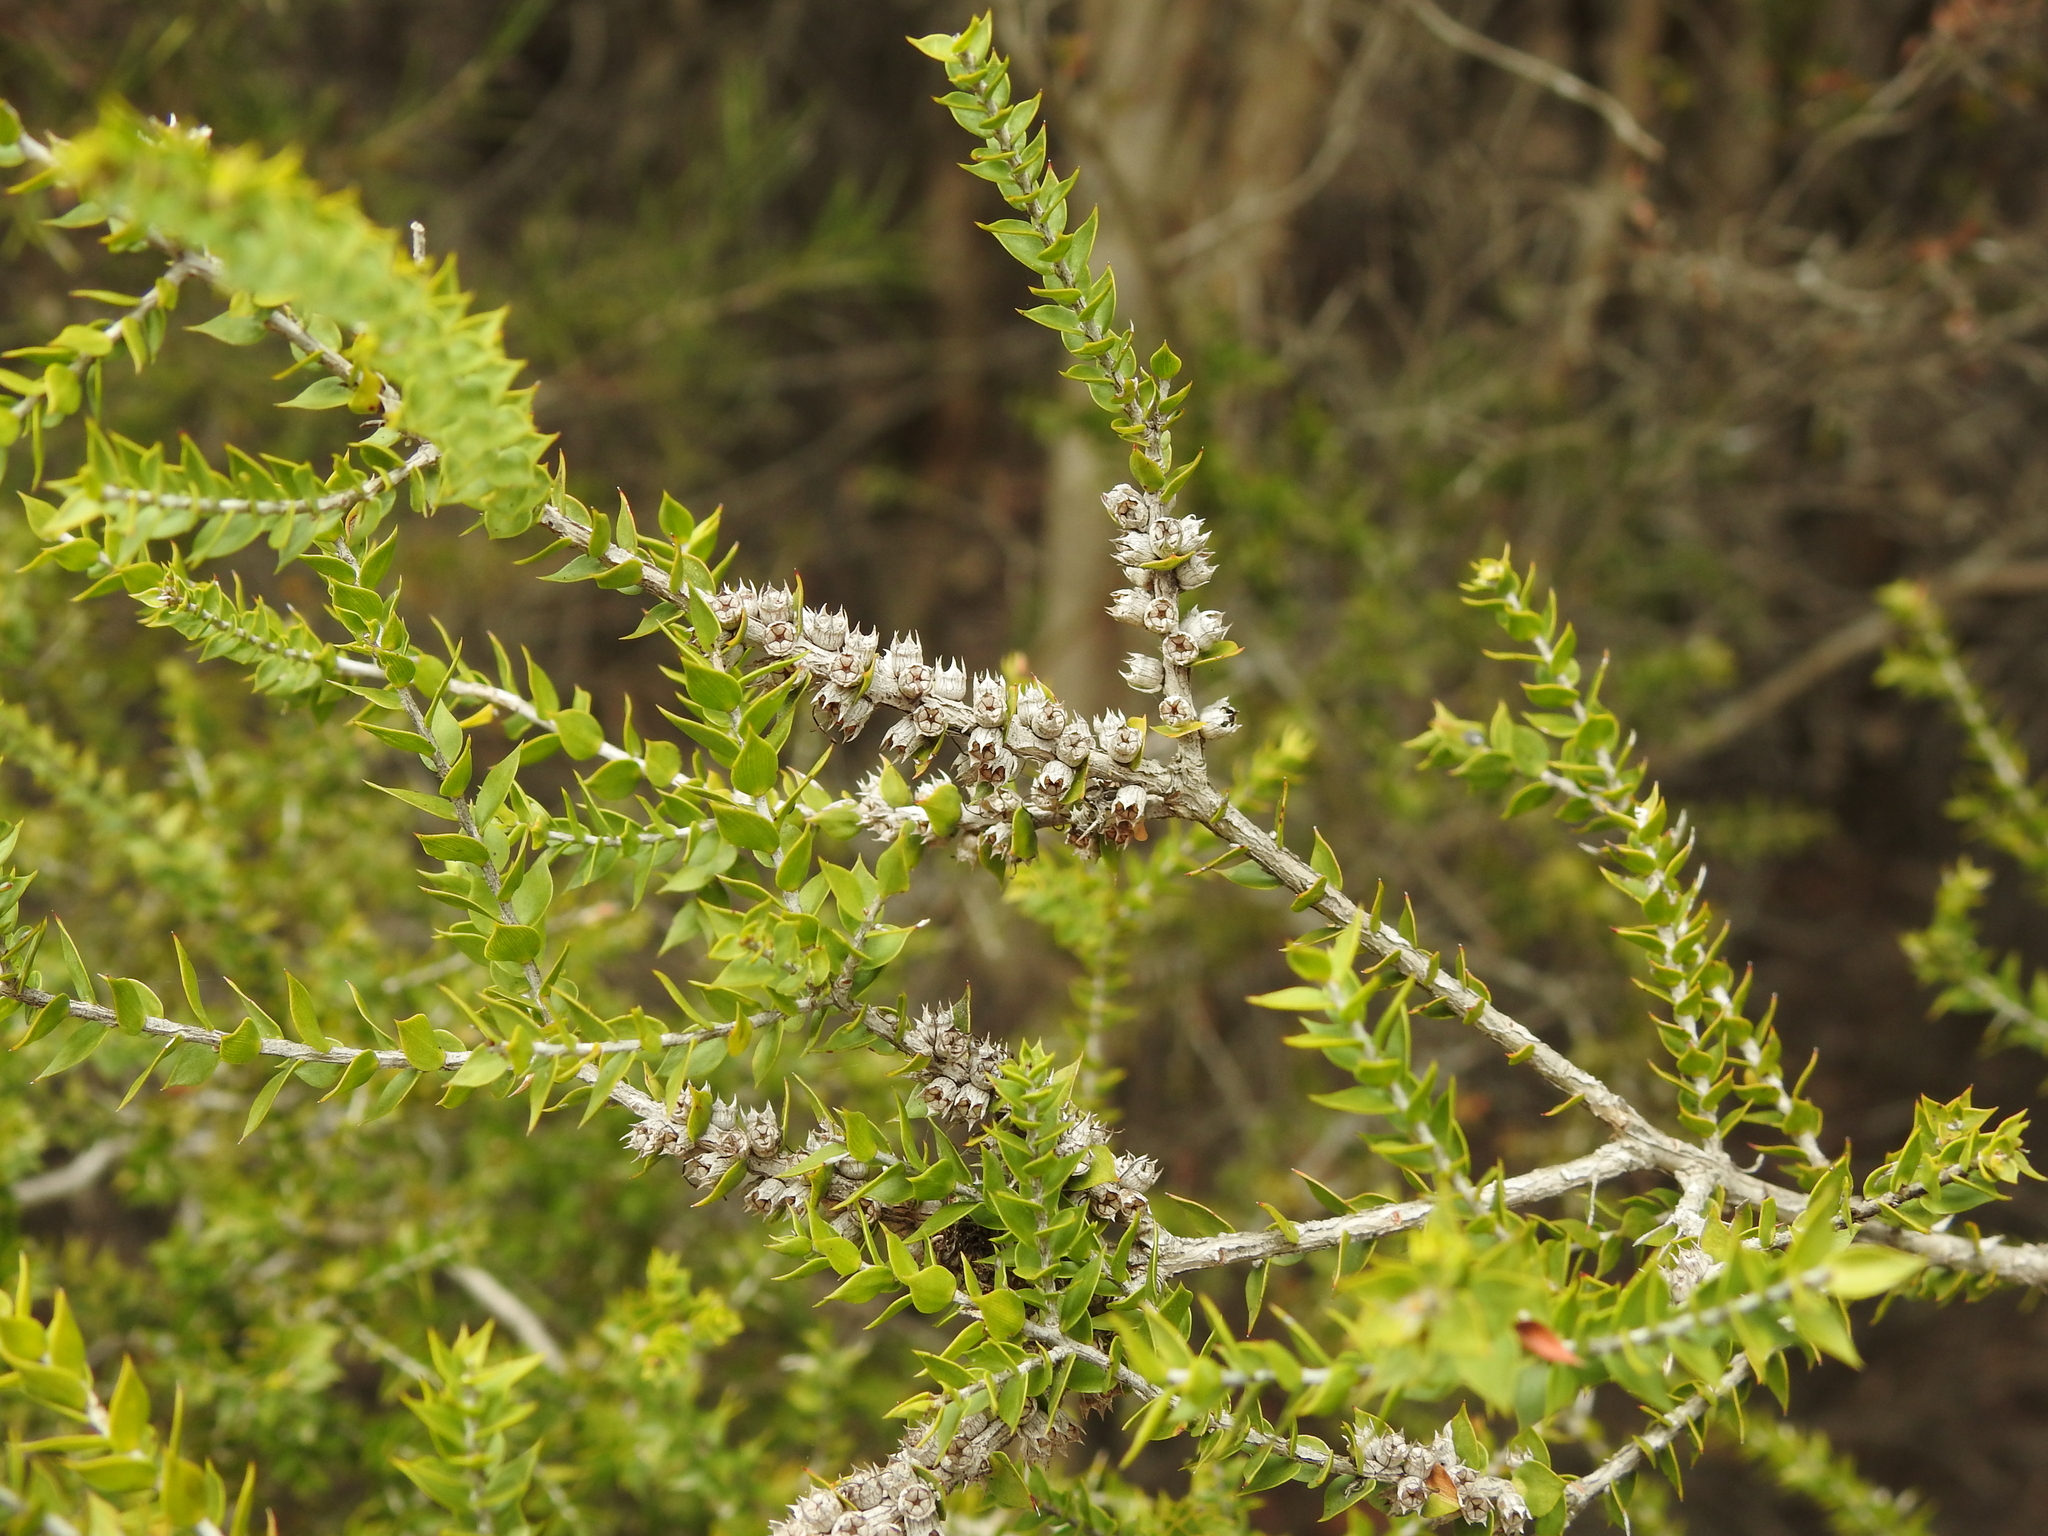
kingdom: Plantae
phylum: Tracheophyta
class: Magnoliopsida
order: Myrtales
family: Myrtaceae
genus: Melaleuca
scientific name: Melaleuca styphelioides
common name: Prickly paperbark
